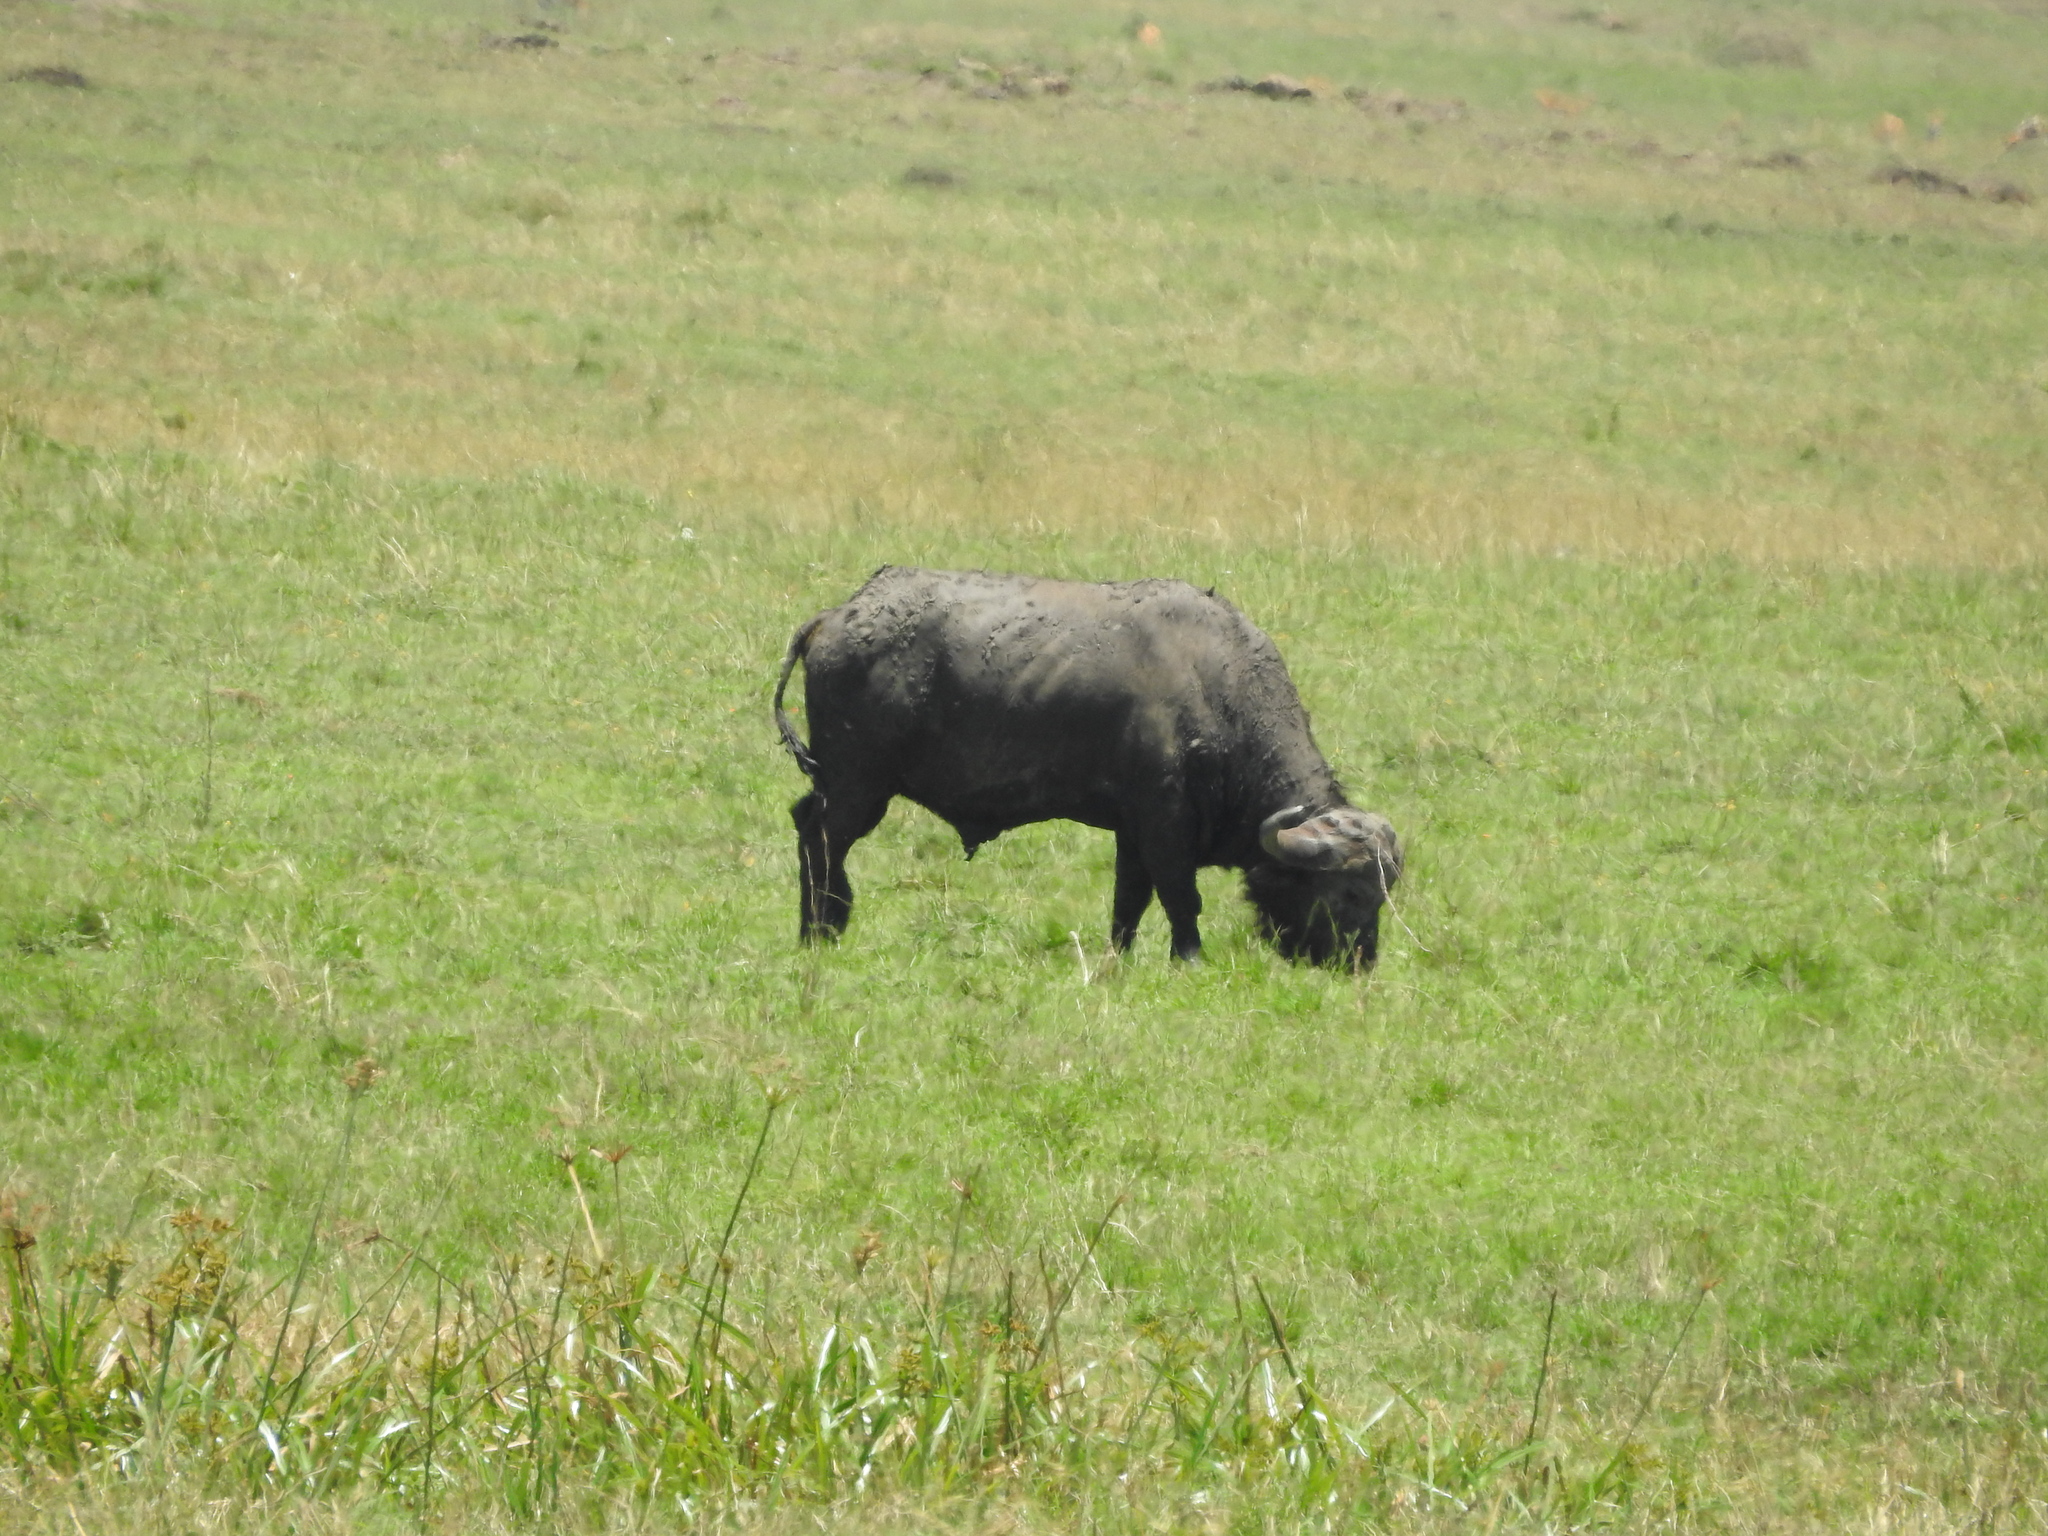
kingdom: Animalia
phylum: Chordata
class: Mammalia
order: Artiodactyla
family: Bovidae
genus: Syncerus
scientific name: Syncerus caffer
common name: African buffalo
